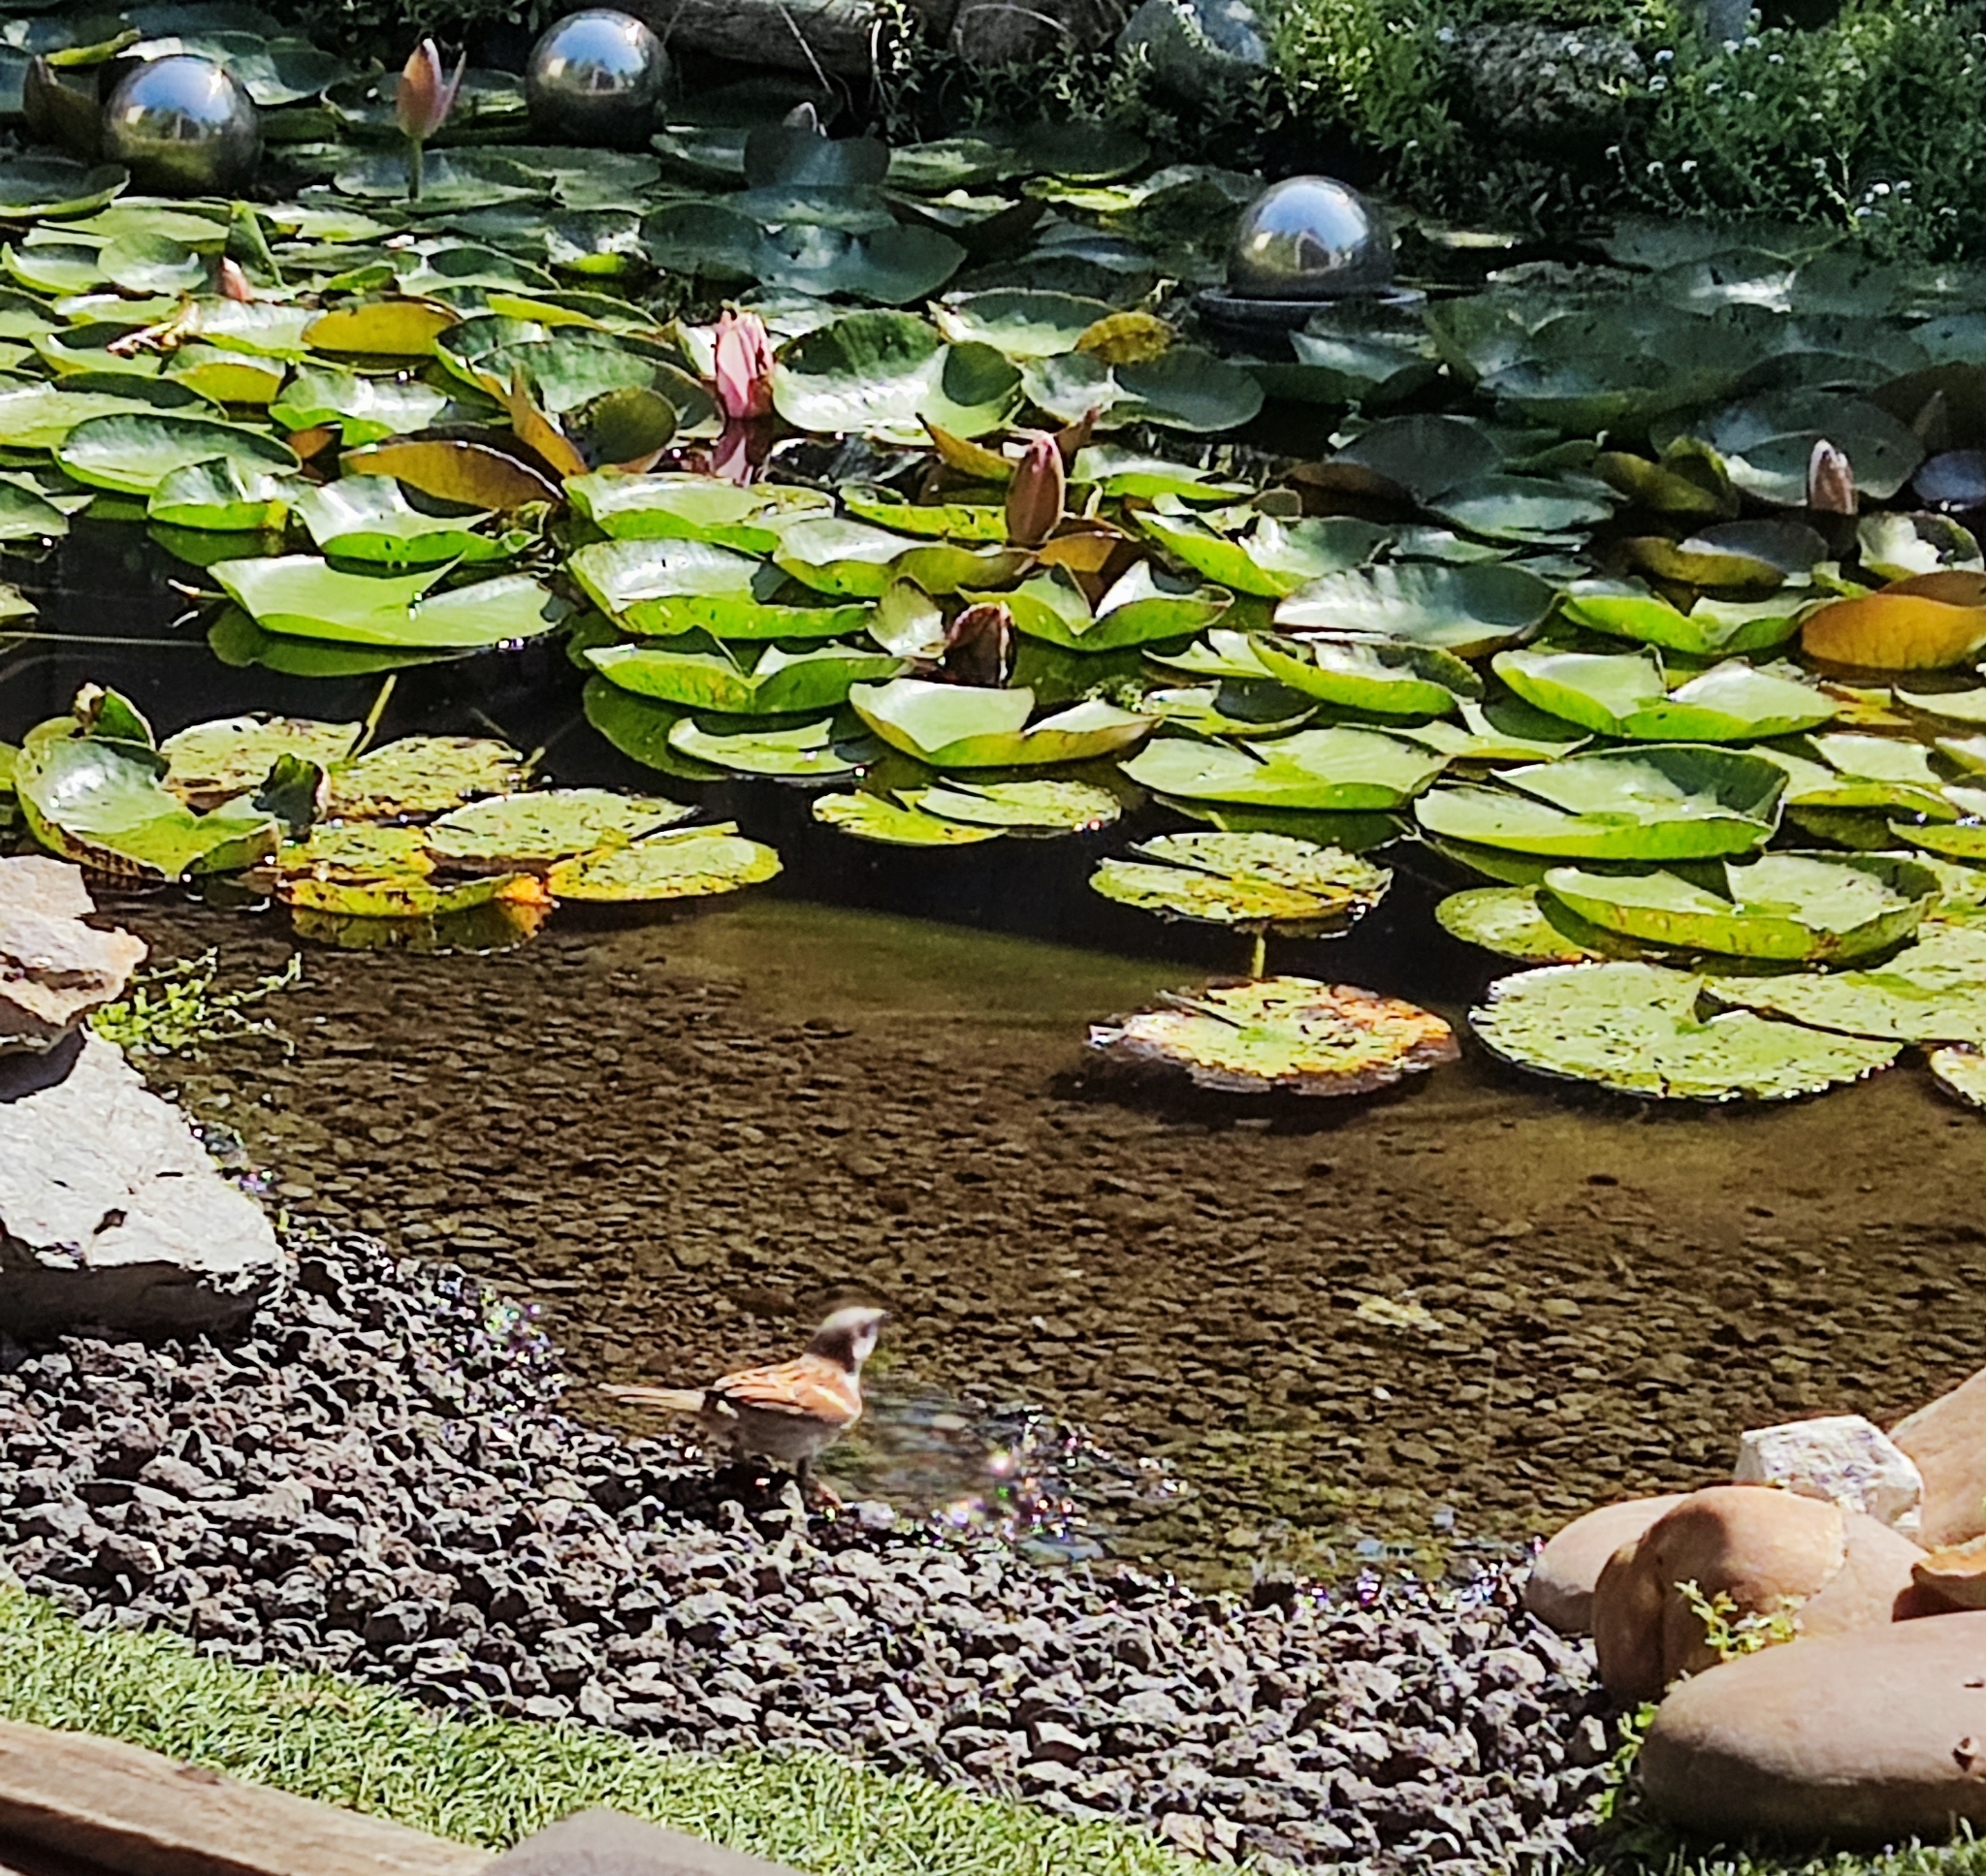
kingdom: Animalia
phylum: Chordata
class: Aves
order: Passeriformes
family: Passeridae
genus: Passer
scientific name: Passer domesticus
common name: House sparrow
